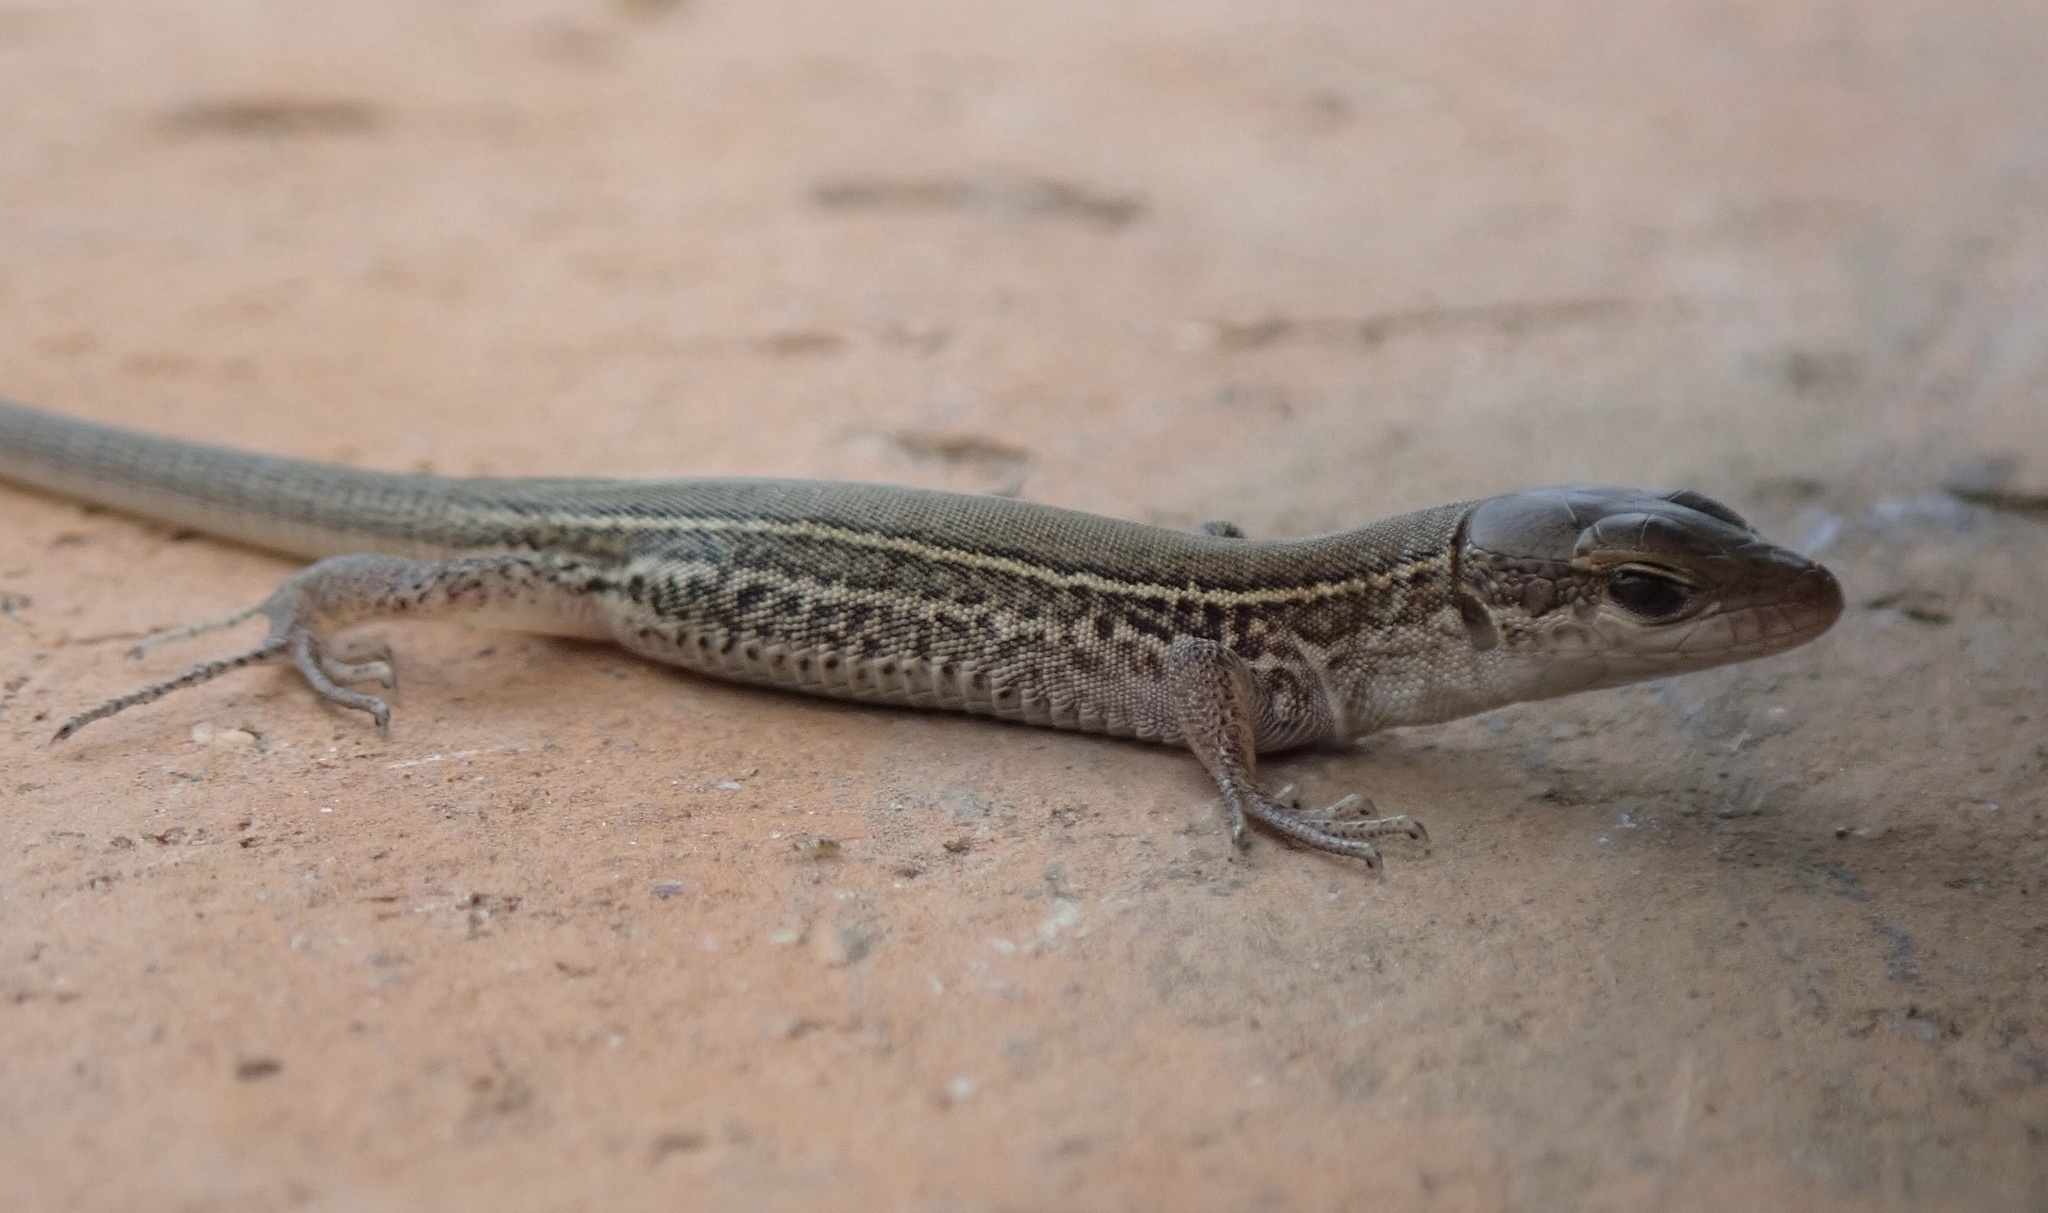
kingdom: Animalia
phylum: Chordata
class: Squamata
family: Lacertidae
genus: Podarcis
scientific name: Podarcis melisellensis
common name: Dalmatian wall lizard
